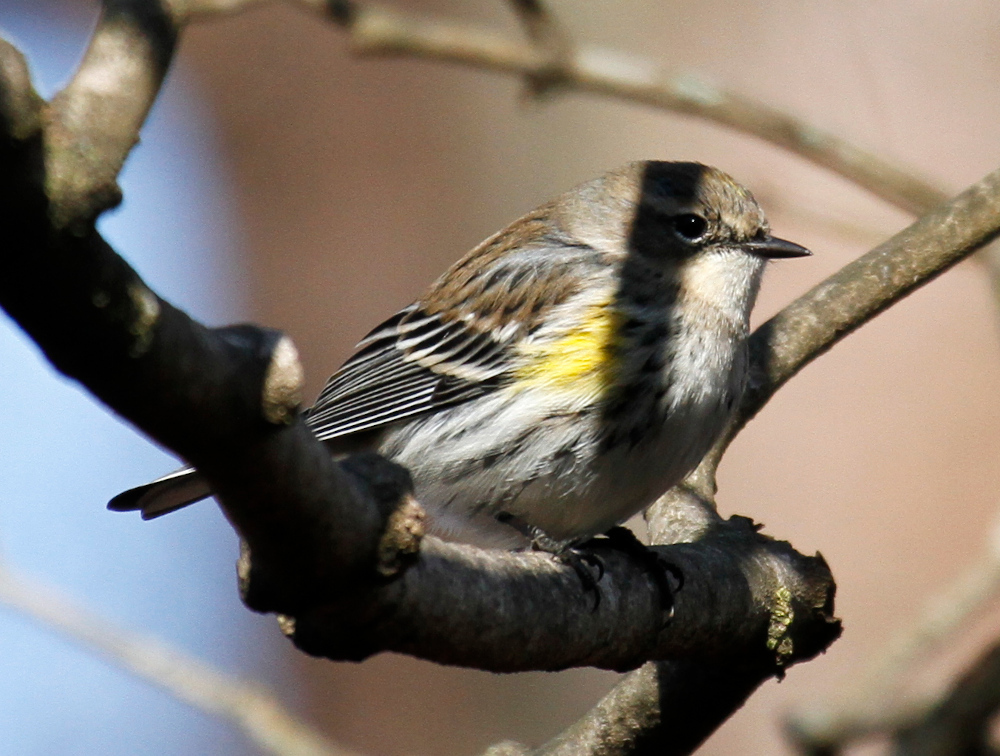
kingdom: Animalia
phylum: Chordata
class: Aves
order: Passeriformes
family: Parulidae
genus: Setophaga
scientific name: Setophaga coronata
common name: Myrtle warbler
